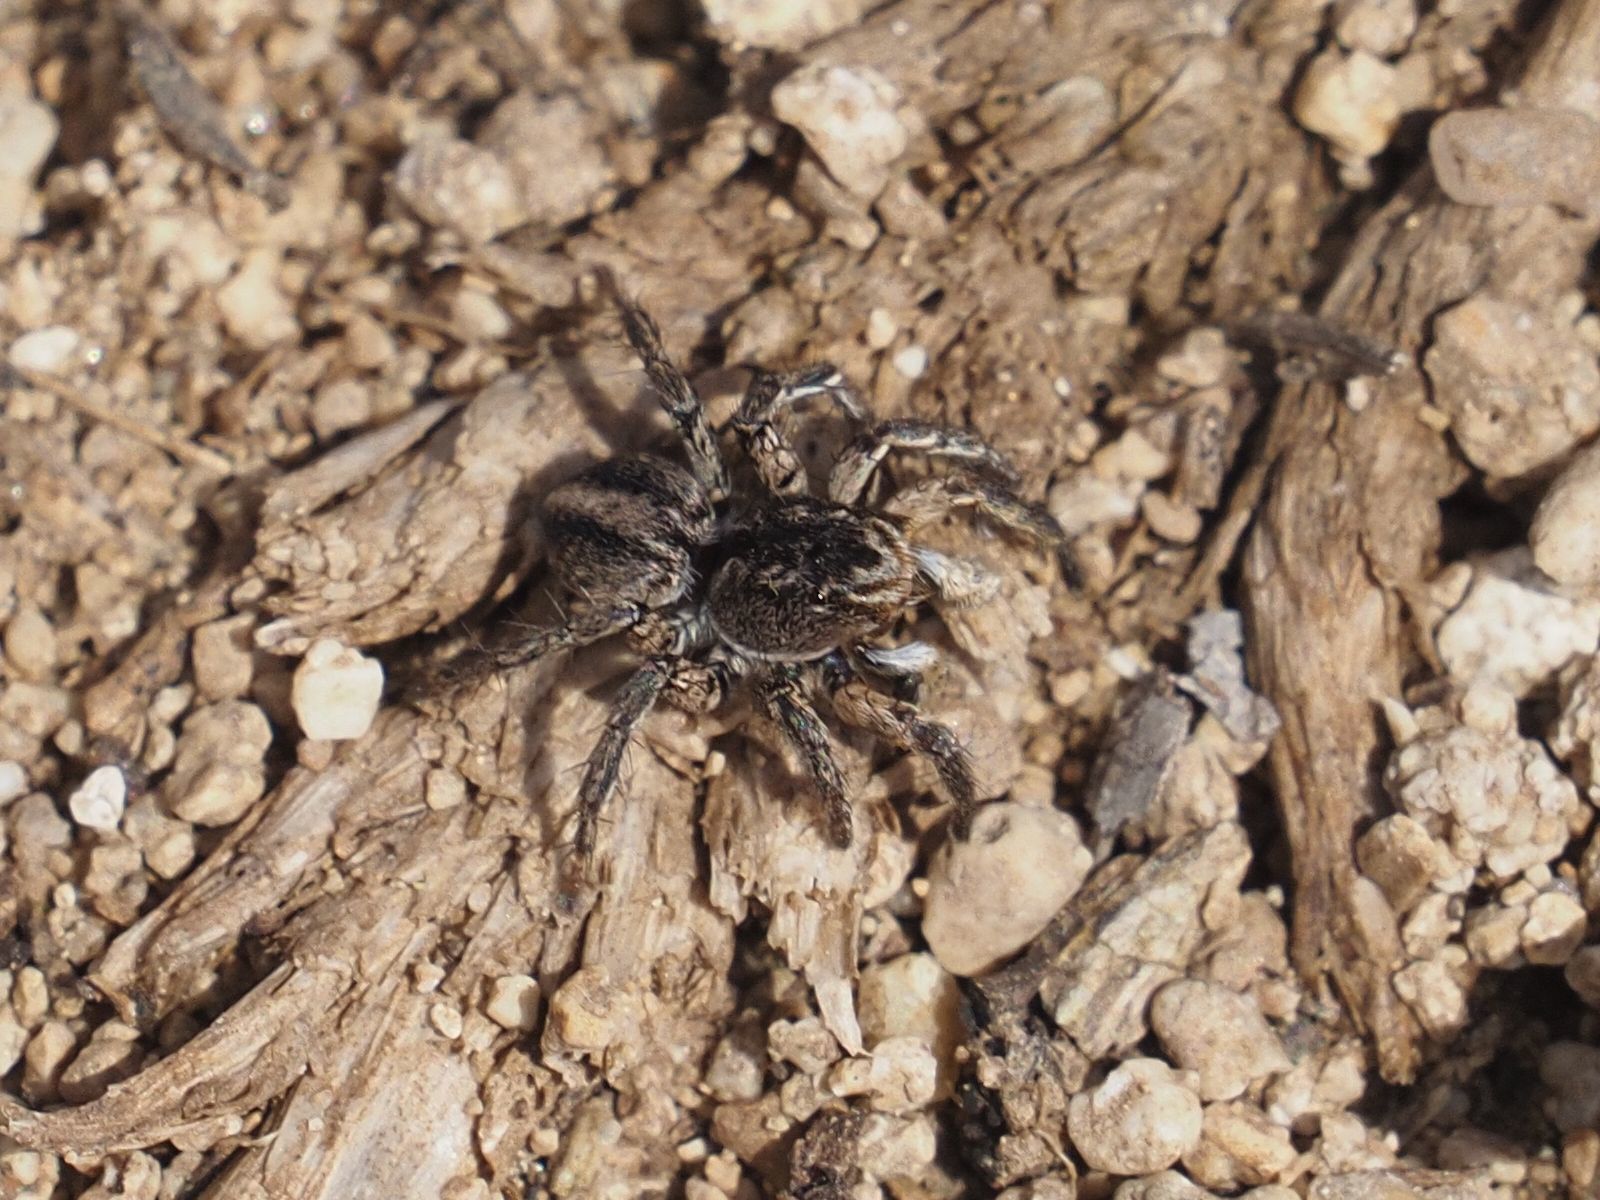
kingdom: Animalia
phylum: Arthropoda
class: Arachnida
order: Araneae
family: Salticidae
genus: Aelurillus
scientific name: Aelurillus v-insignitus
